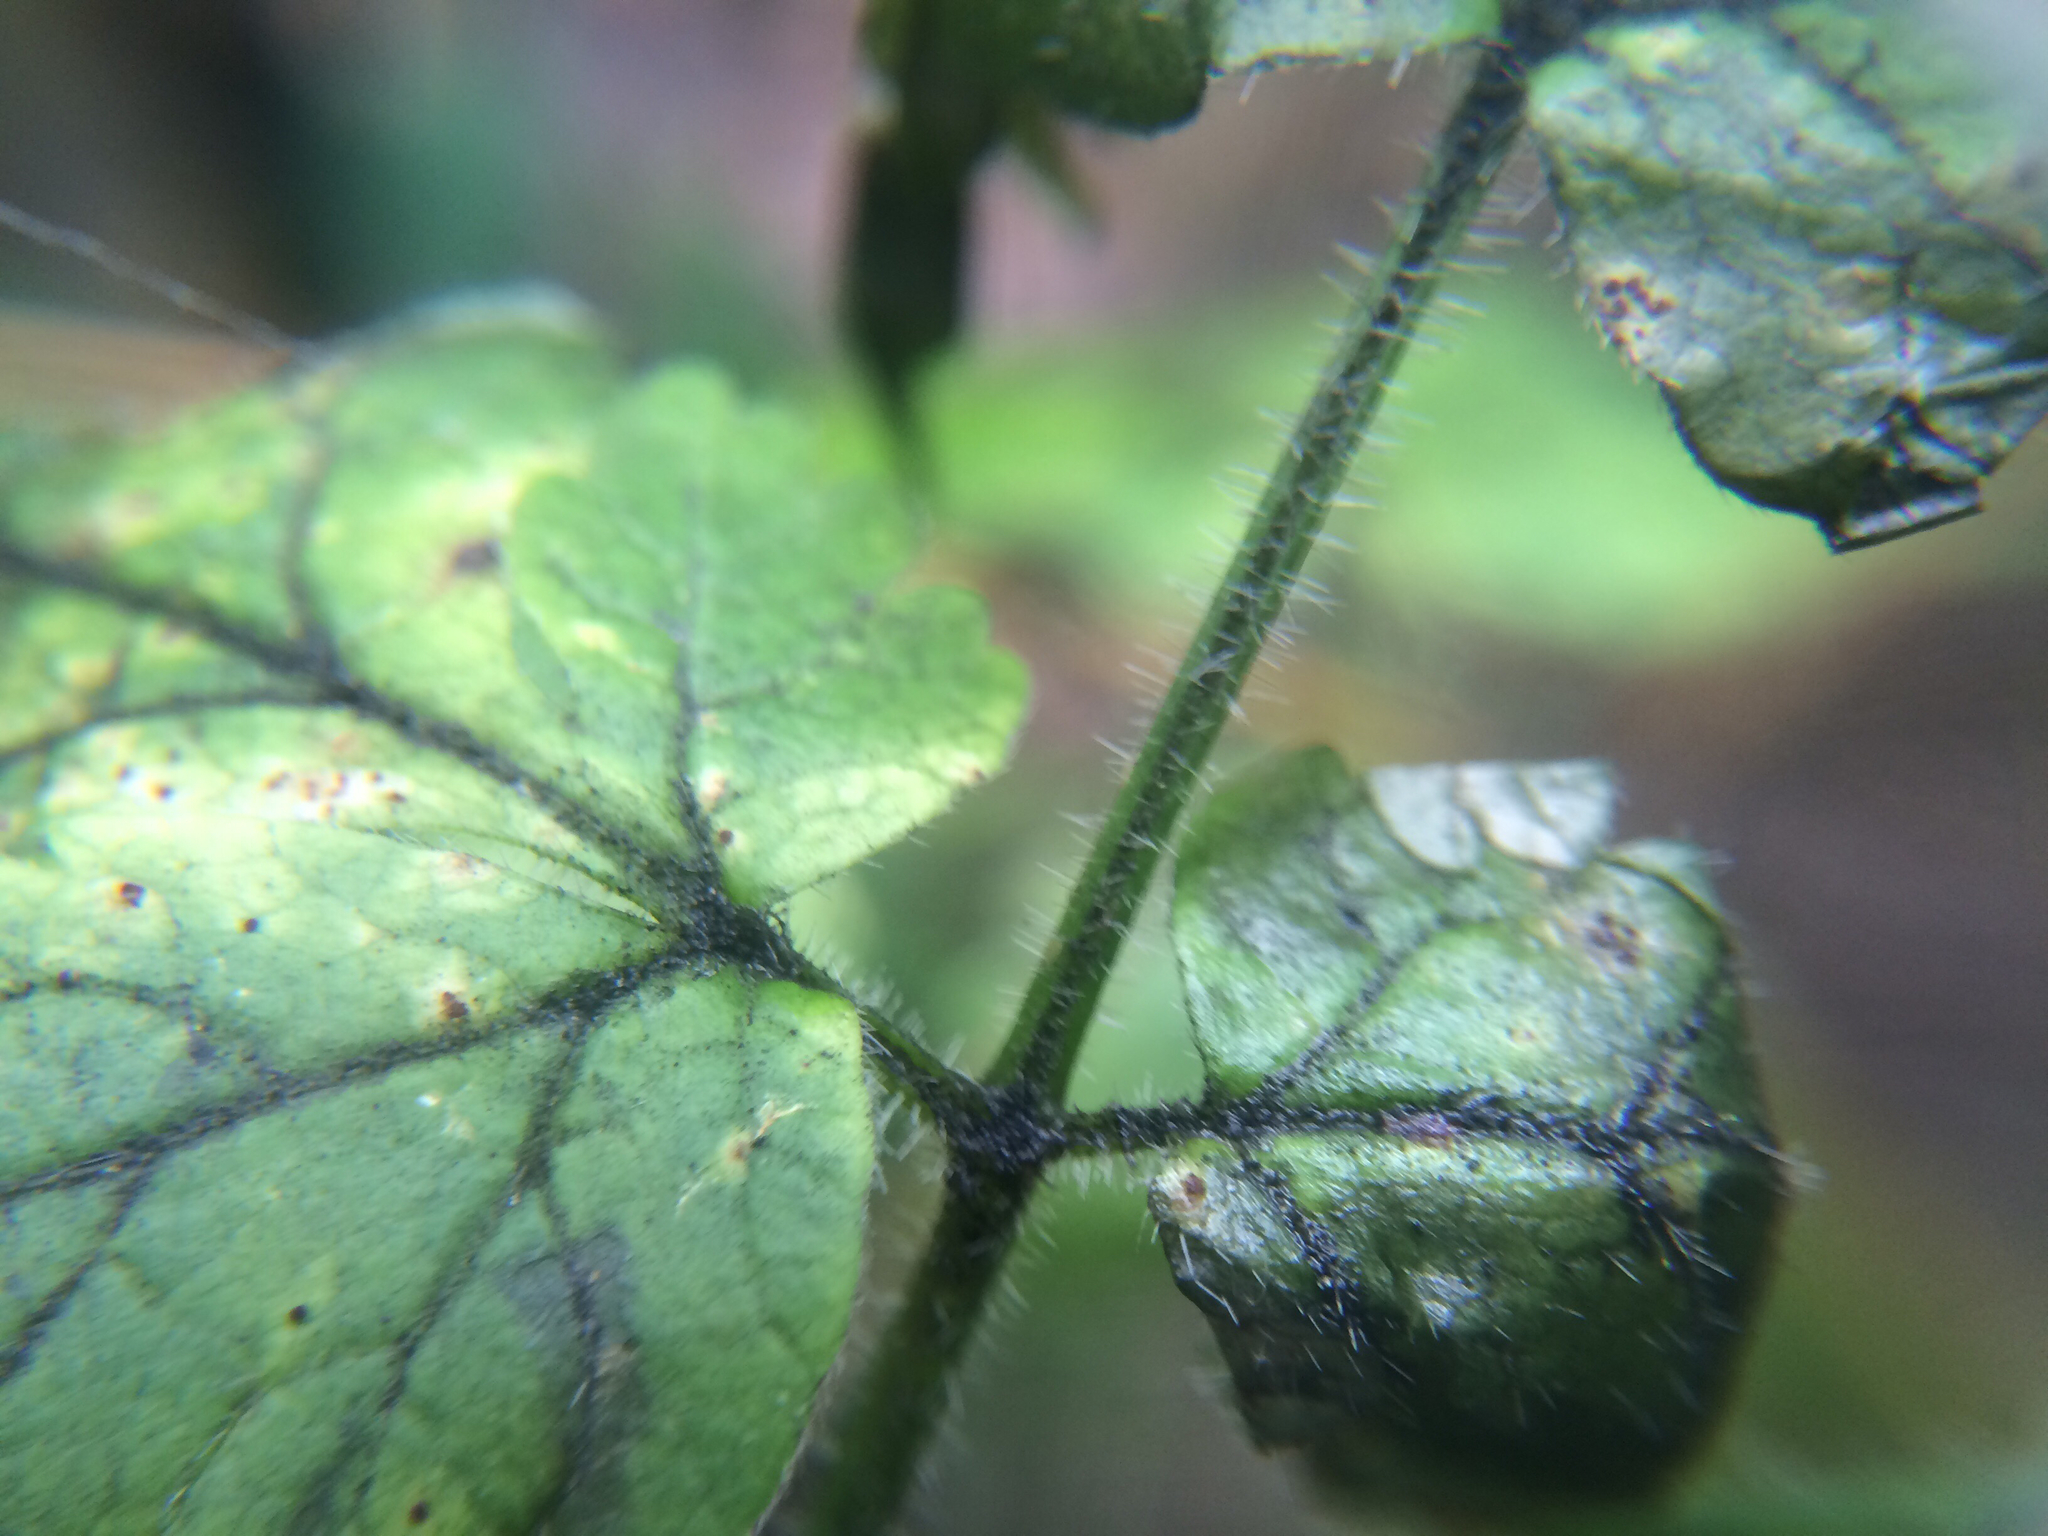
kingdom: Plantae
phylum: Tracheophyta
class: Magnoliopsida
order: Apiales
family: Apiaceae
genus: Osmorhiza
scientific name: Osmorhiza claytonii
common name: Hairy sweet cicely
